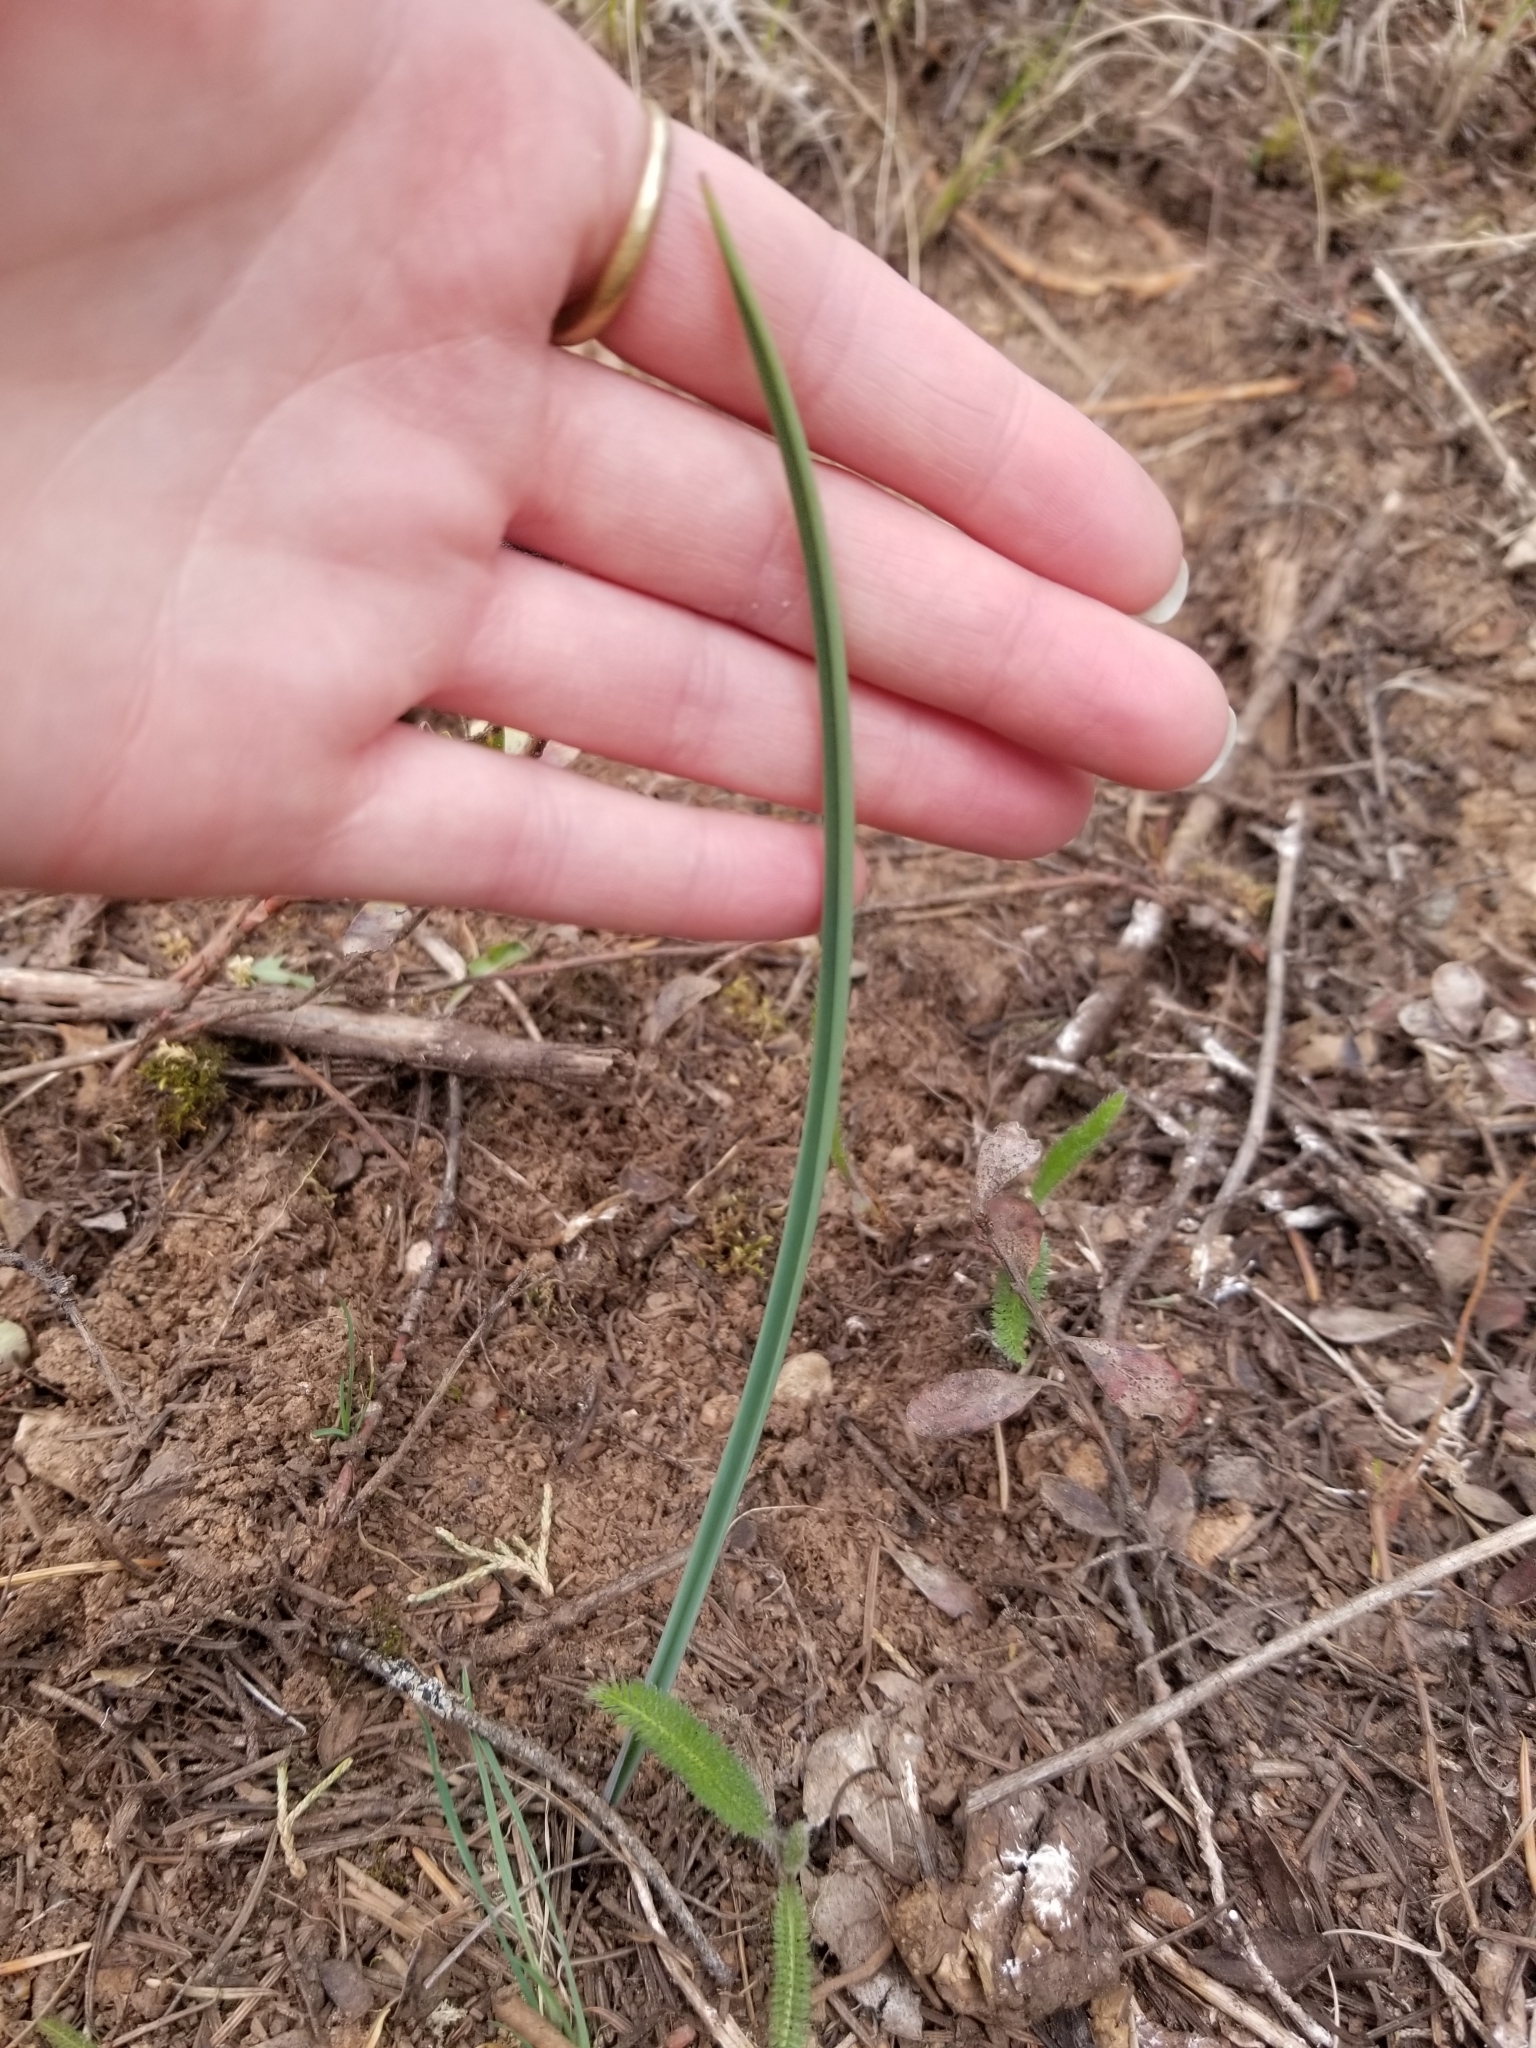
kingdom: Plantae
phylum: Tracheophyta
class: Liliopsida
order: Liliales
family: Liliaceae
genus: Calochortus
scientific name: Calochortus macrocarpus
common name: Green-band mariposa lily
